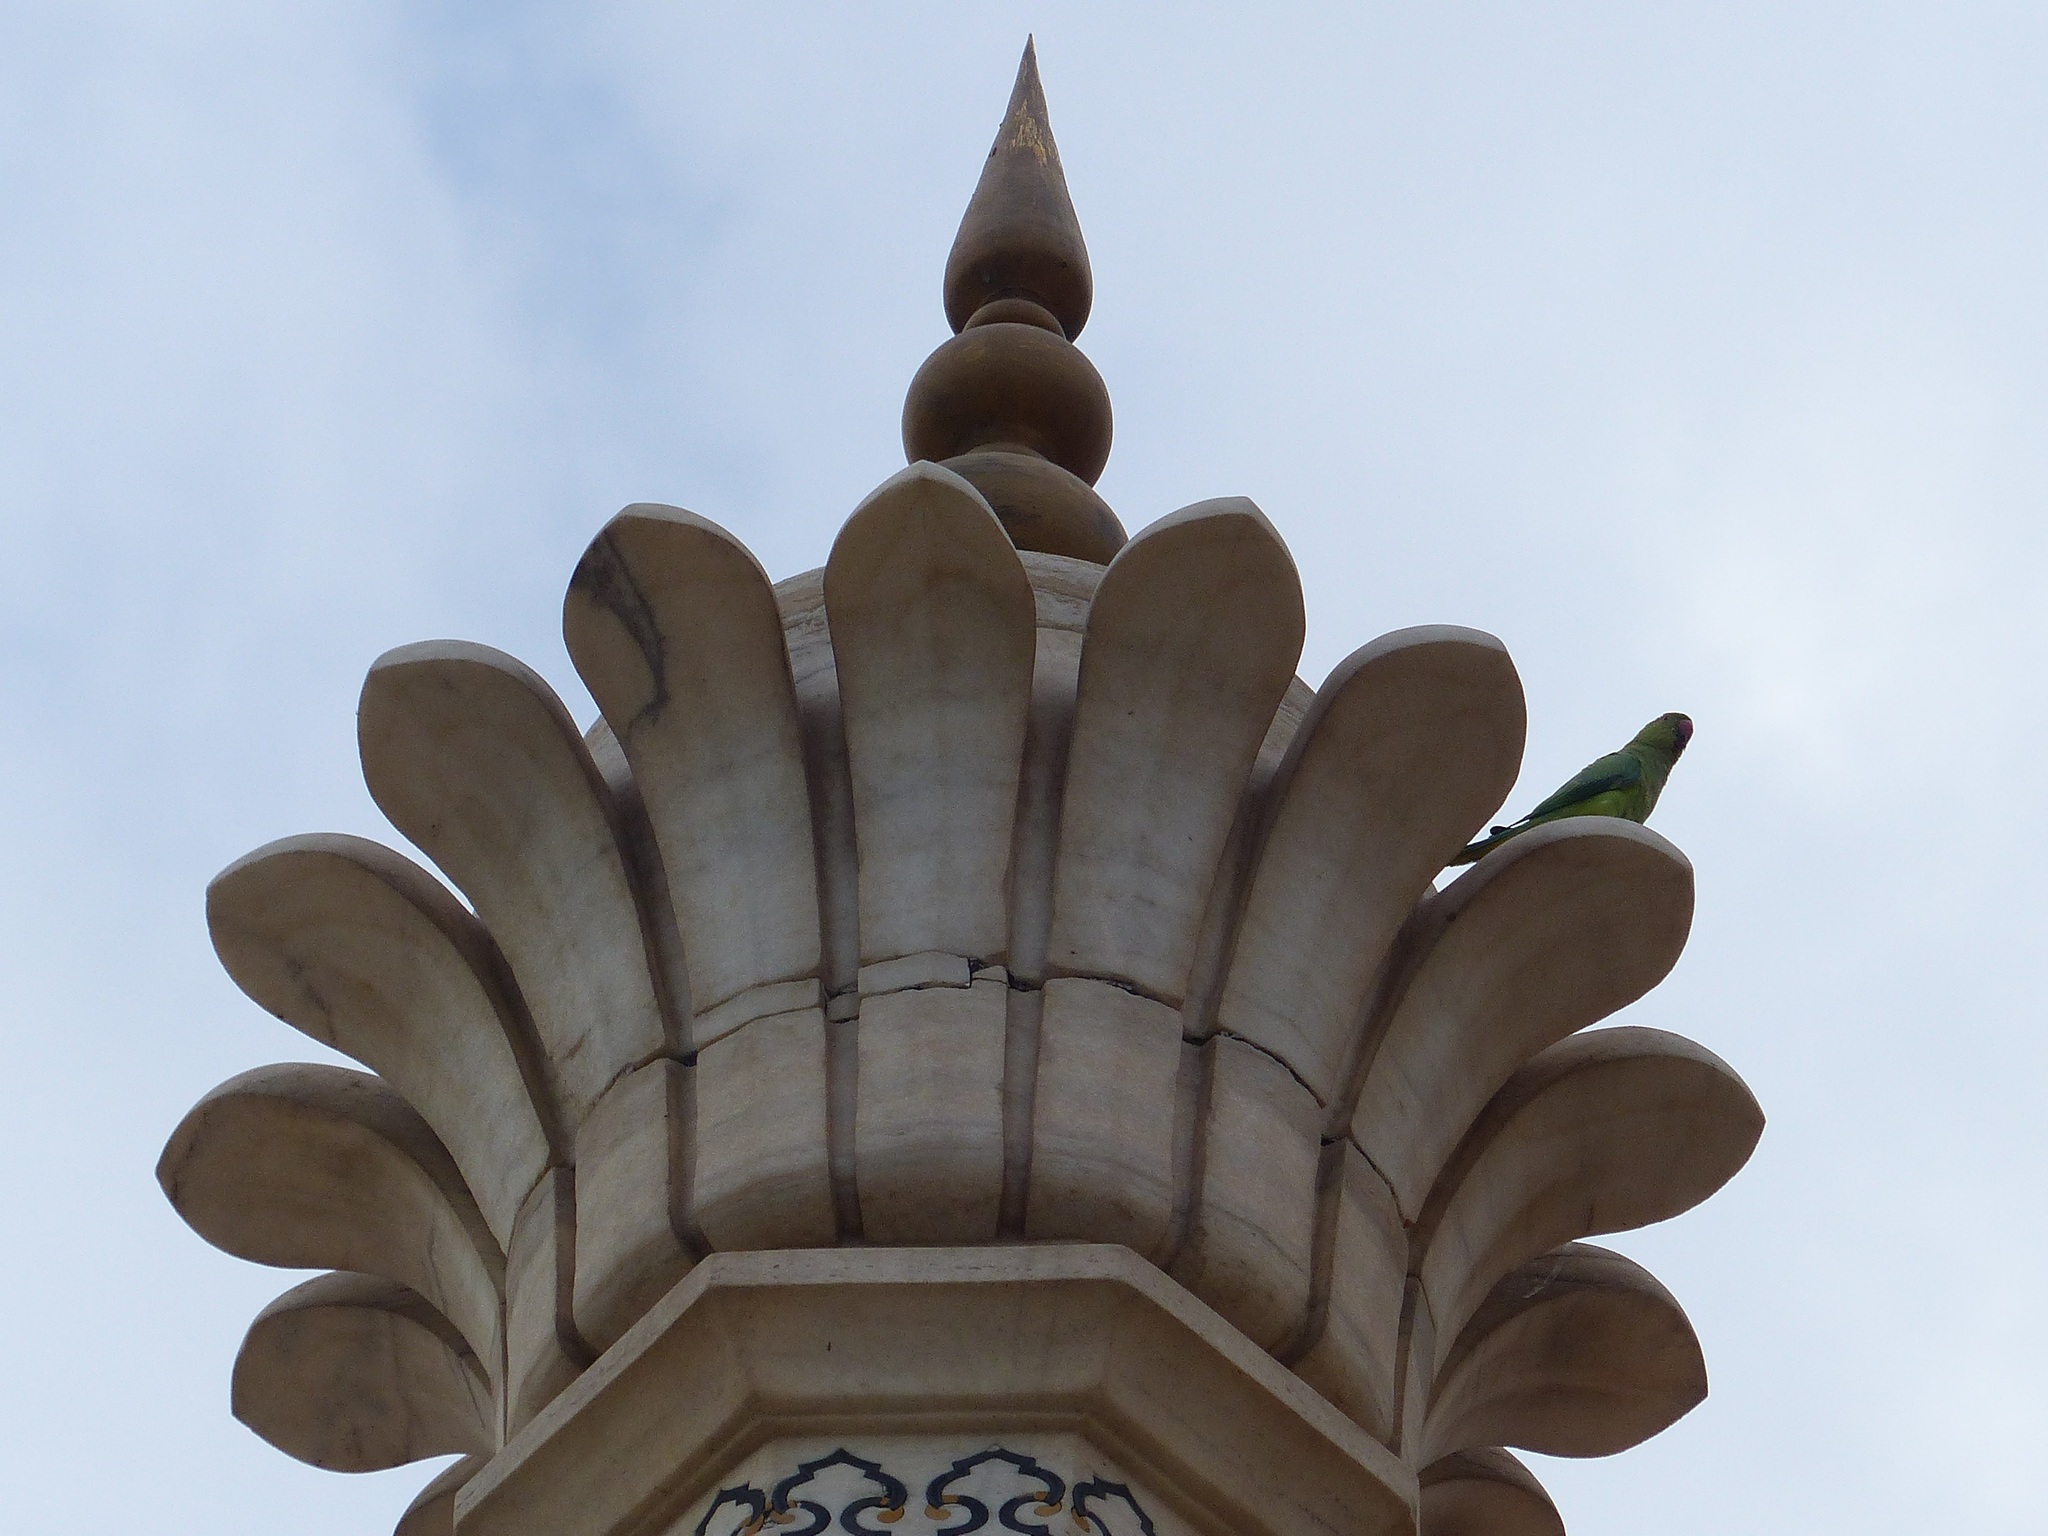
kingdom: Animalia
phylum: Chordata
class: Aves
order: Psittaciformes
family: Psittacidae
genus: Psittacula
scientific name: Psittacula krameri
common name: Rose-ringed parakeet
